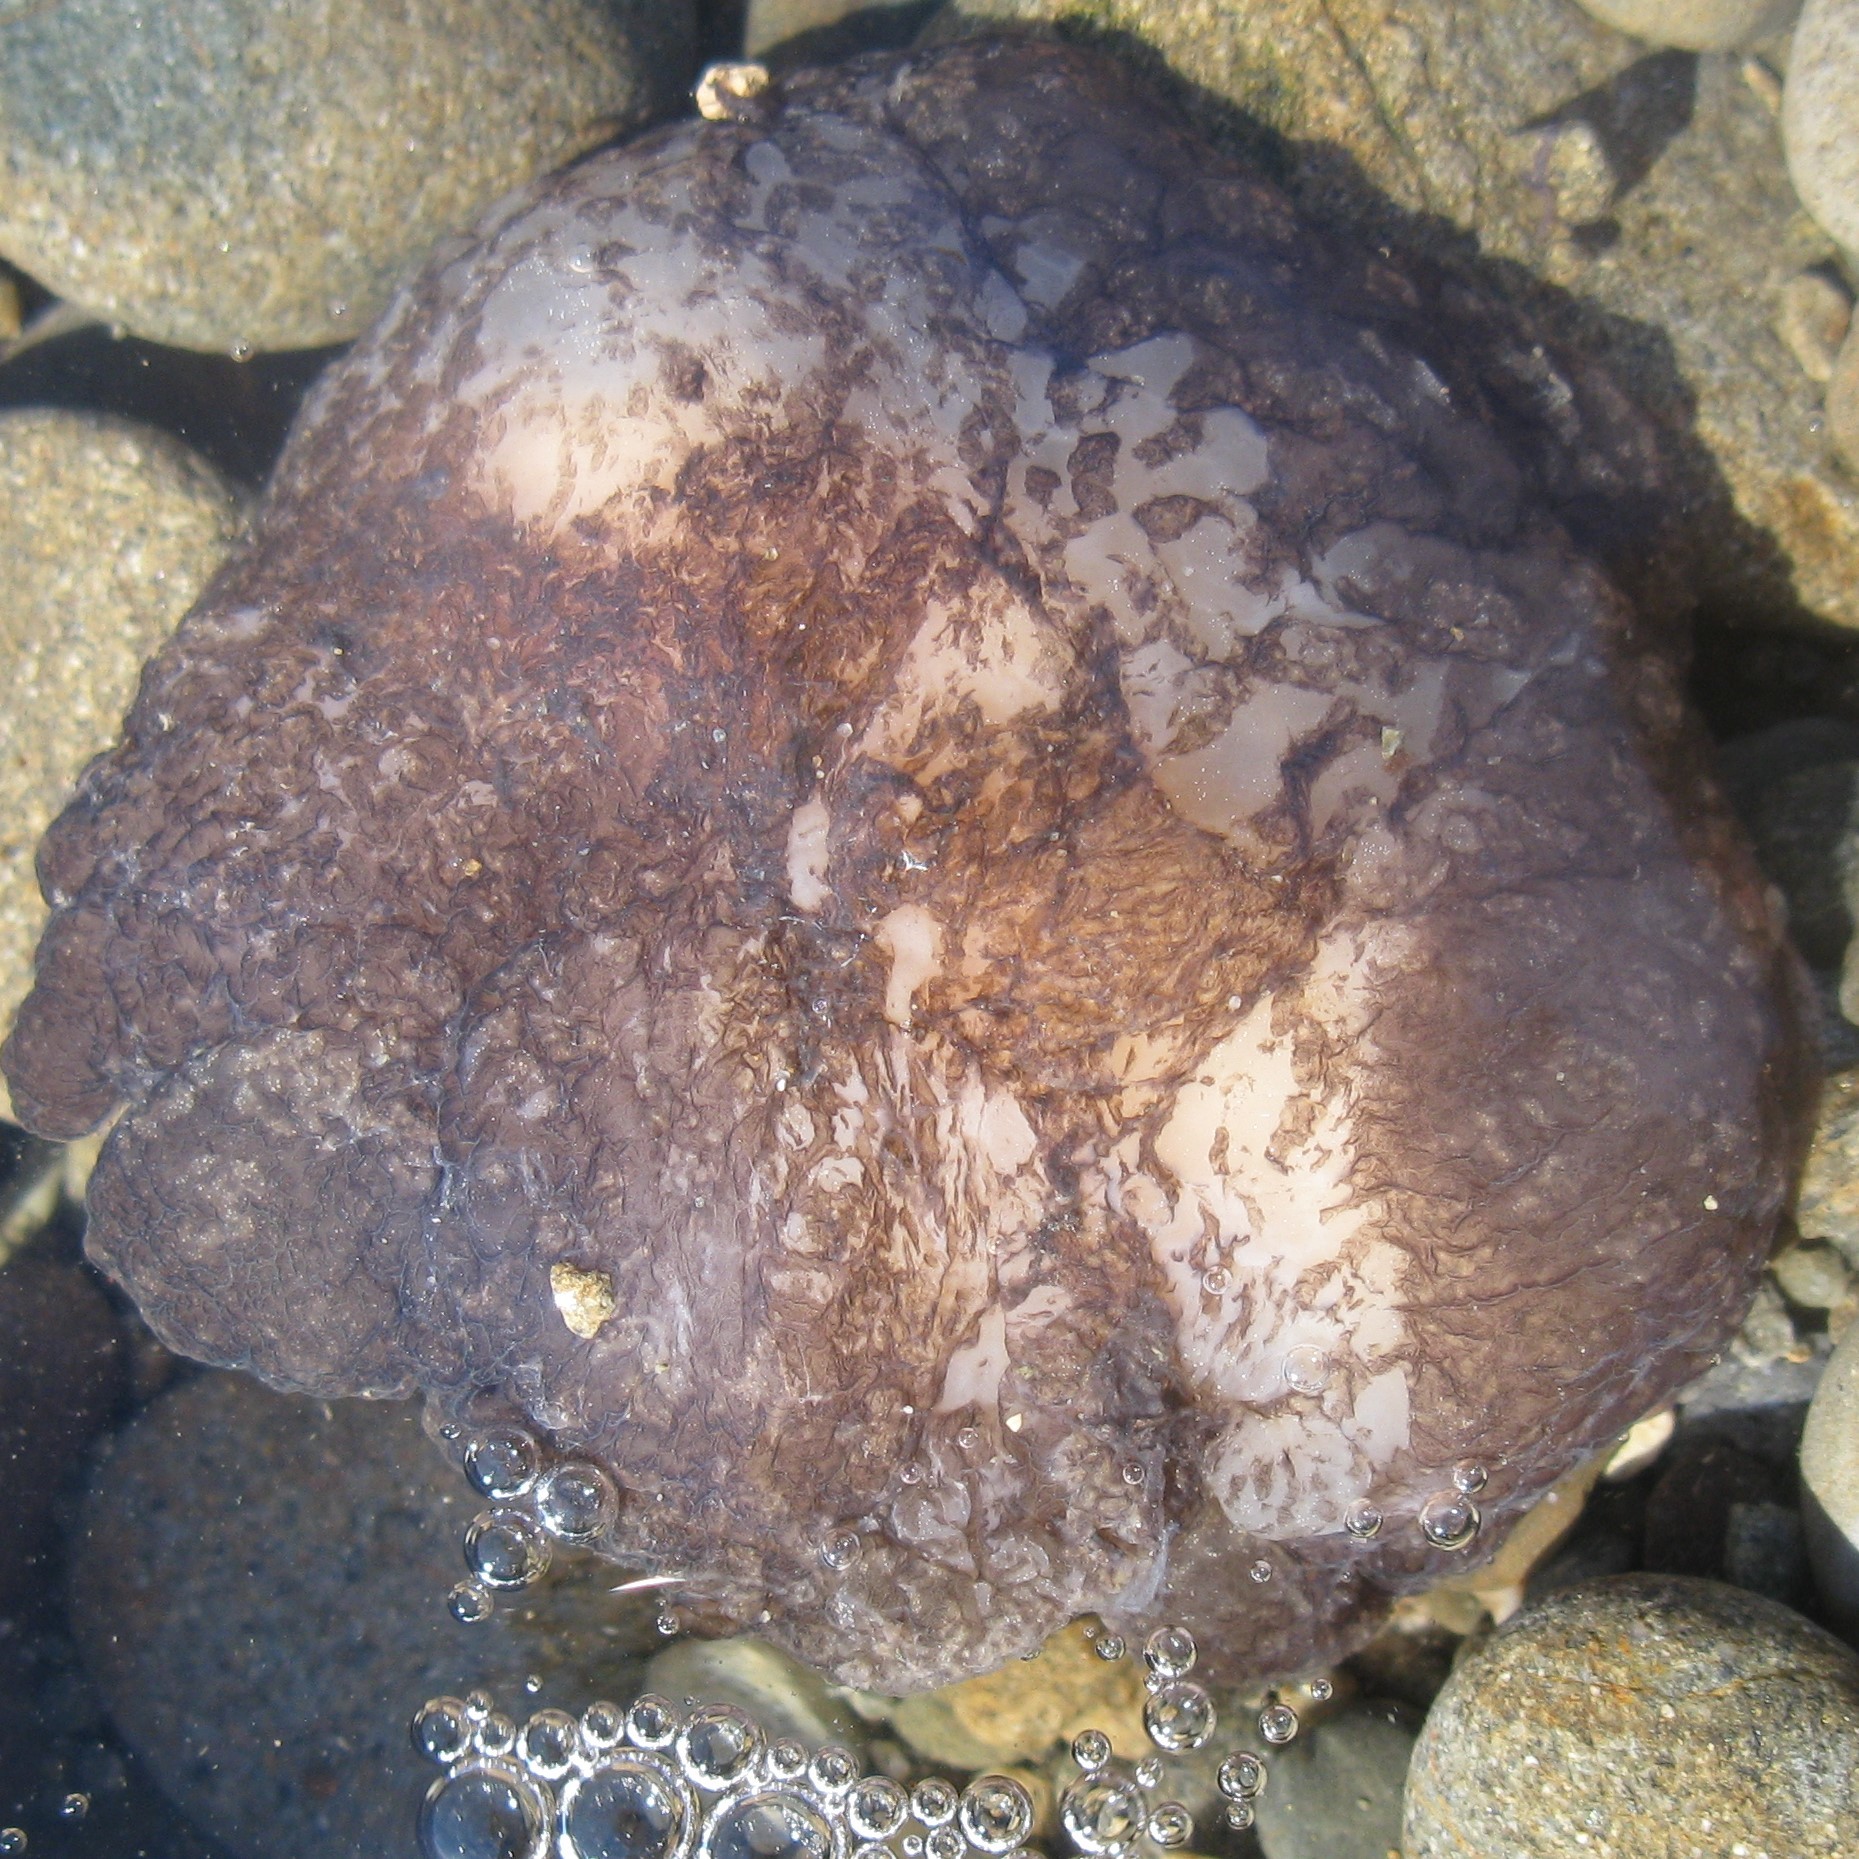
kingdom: Animalia
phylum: Mollusca
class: Gastropoda
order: Pleurobranchida
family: Pleurobranchaeidae
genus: Pleurobranchaea
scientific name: Pleurobranchaea maculata
